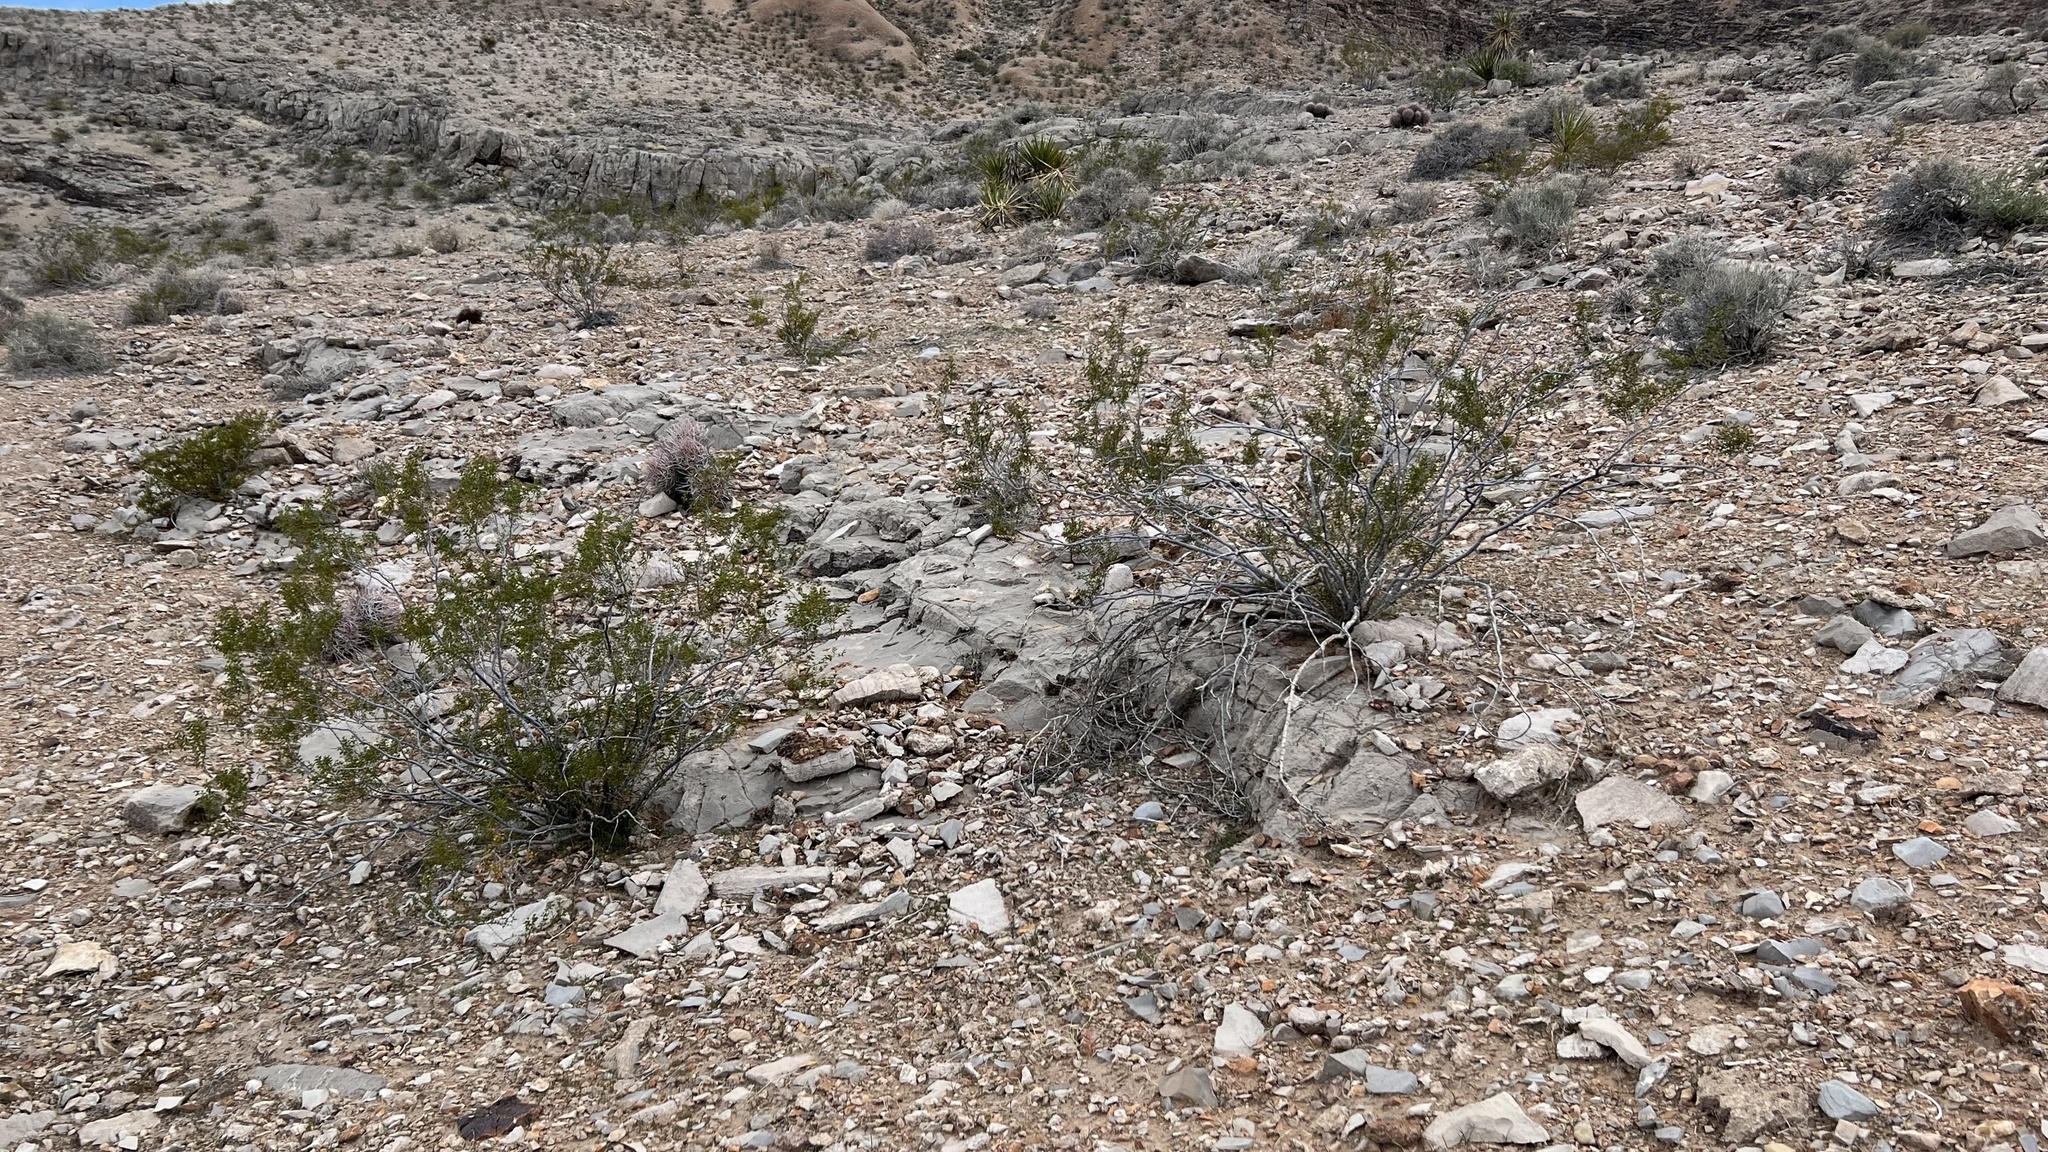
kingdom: Plantae
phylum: Tracheophyta
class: Magnoliopsida
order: Zygophyllales
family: Zygophyllaceae
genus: Larrea
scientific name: Larrea tridentata
